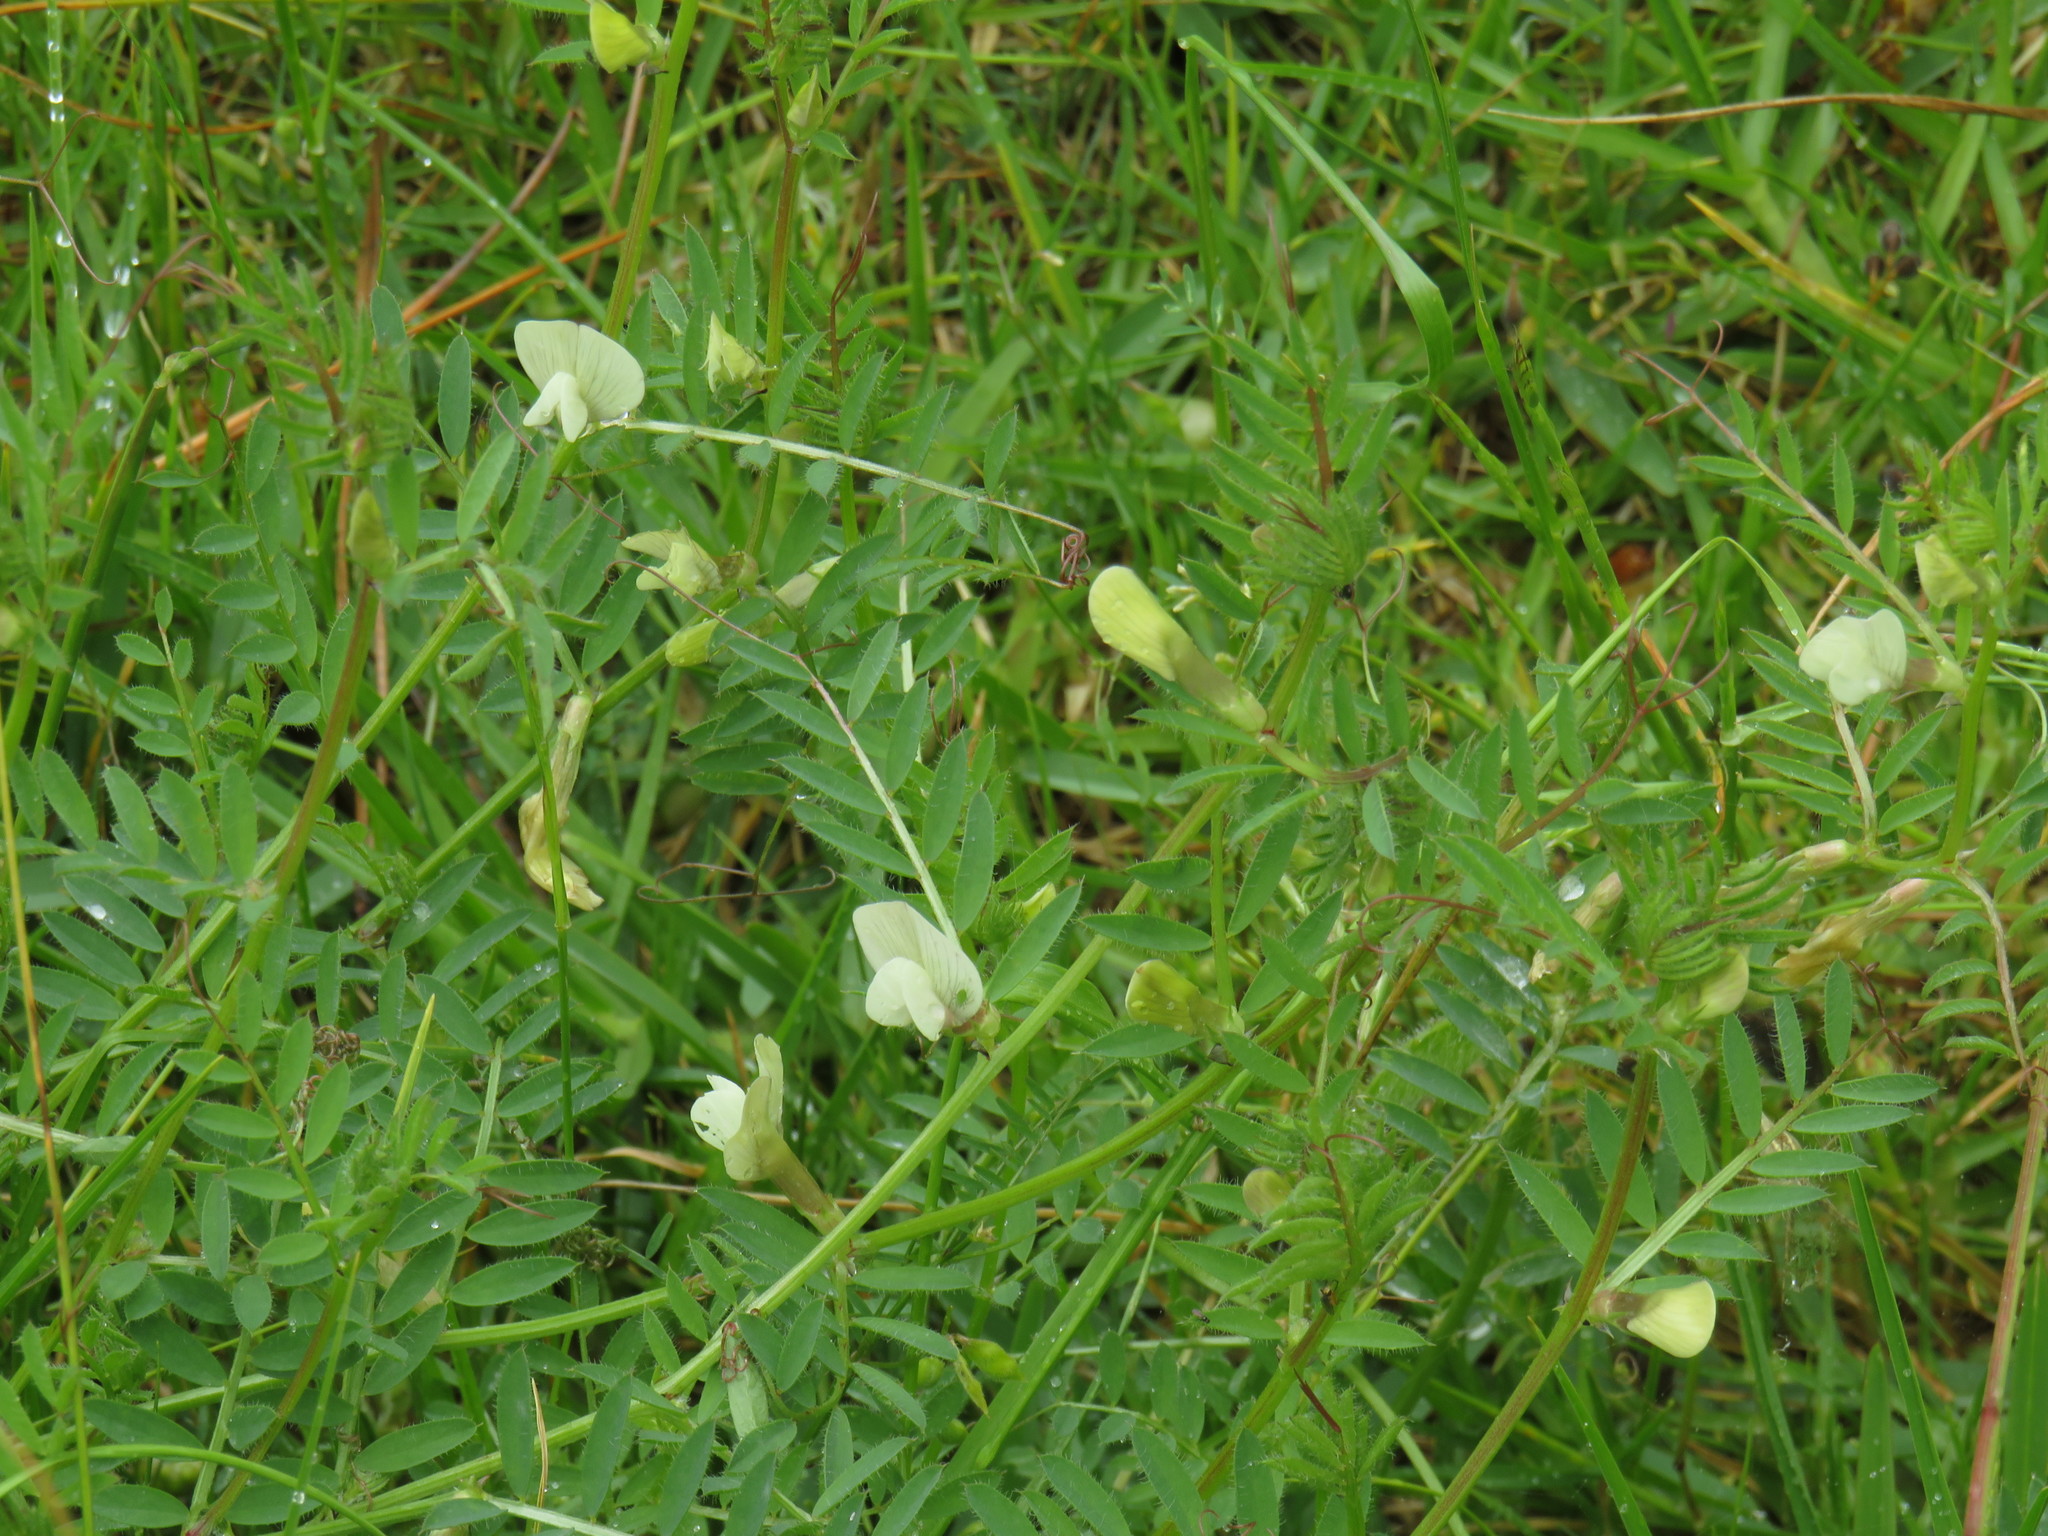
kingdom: Plantae
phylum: Tracheophyta
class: Magnoliopsida
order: Fabales
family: Fabaceae
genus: Vicia
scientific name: Vicia lutea
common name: Smooth yellow vetch
